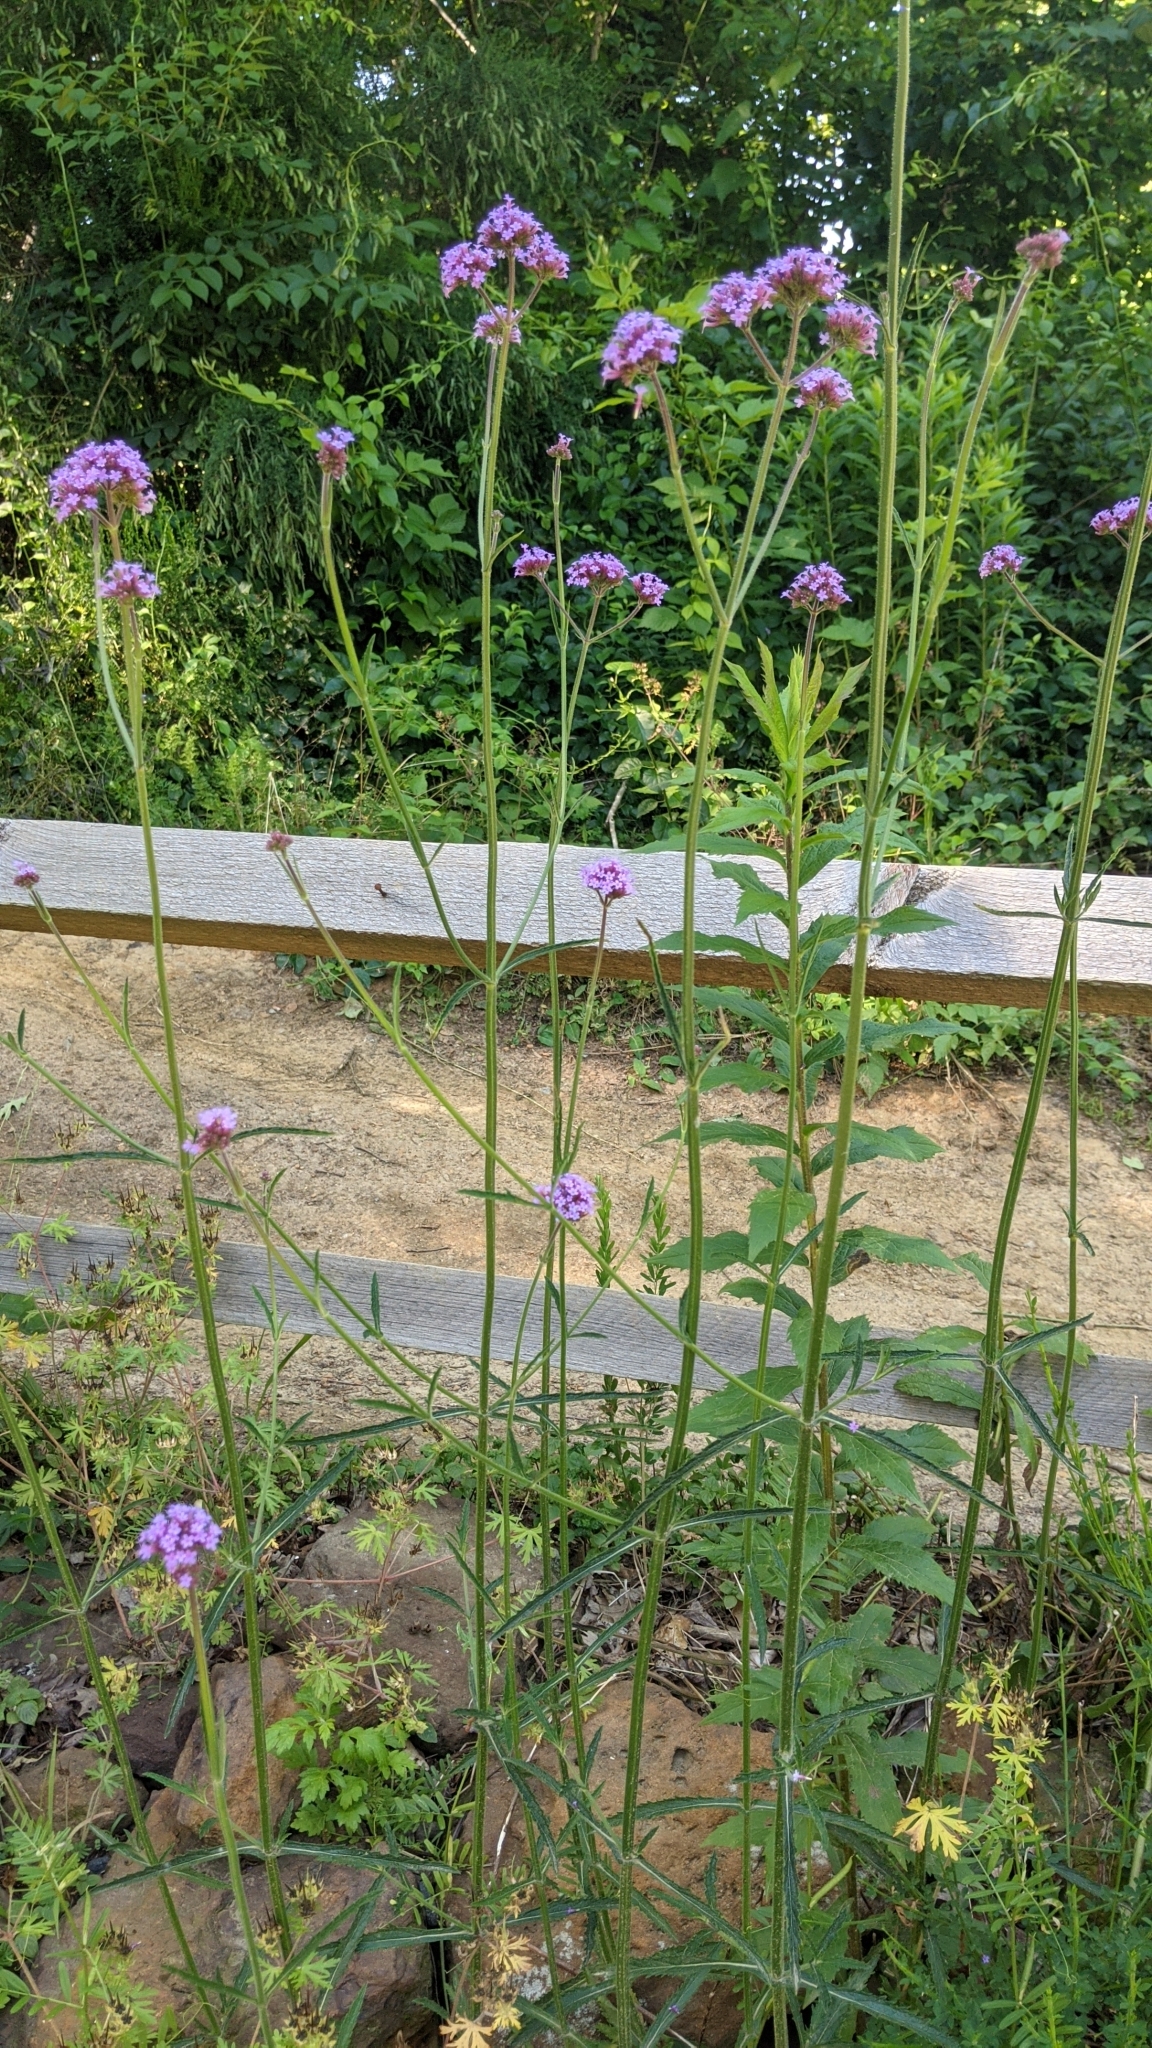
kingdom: Plantae
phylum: Tracheophyta
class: Magnoliopsida
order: Lamiales
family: Verbenaceae
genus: Verbena
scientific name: Verbena bonariensis
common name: Purpletop vervain
